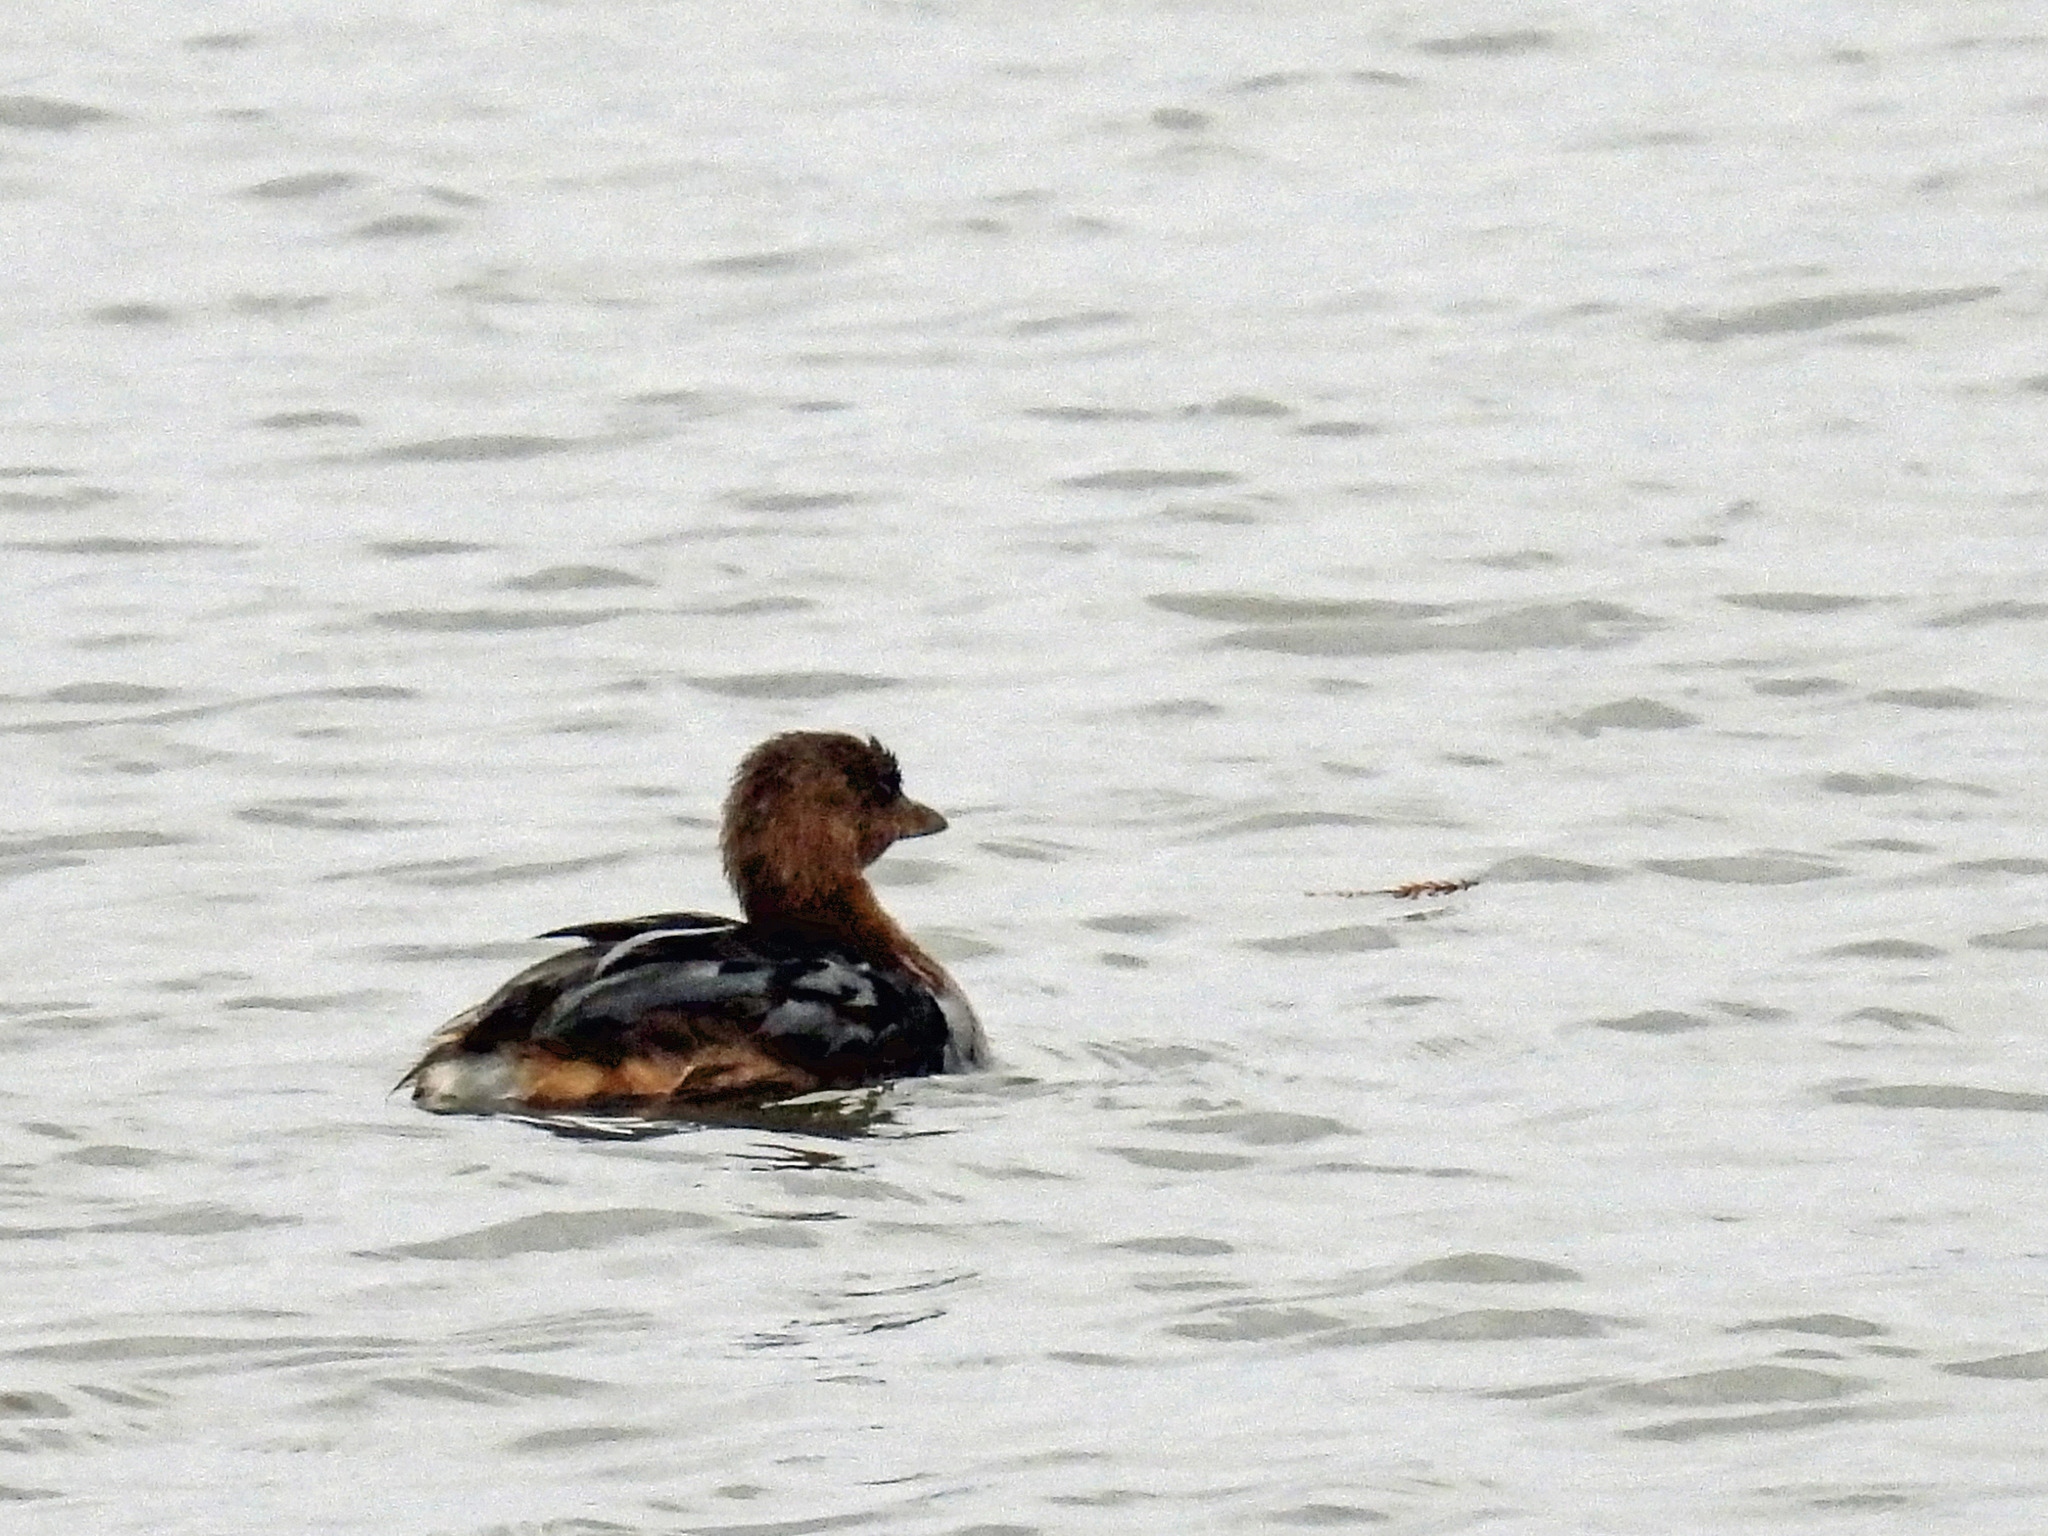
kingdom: Animalia
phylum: Chordata
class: Aves
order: Podicipediformes
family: Podicipedidae
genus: Podilymbus
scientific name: Podilymbus podiceps
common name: Pied-billed grebe
